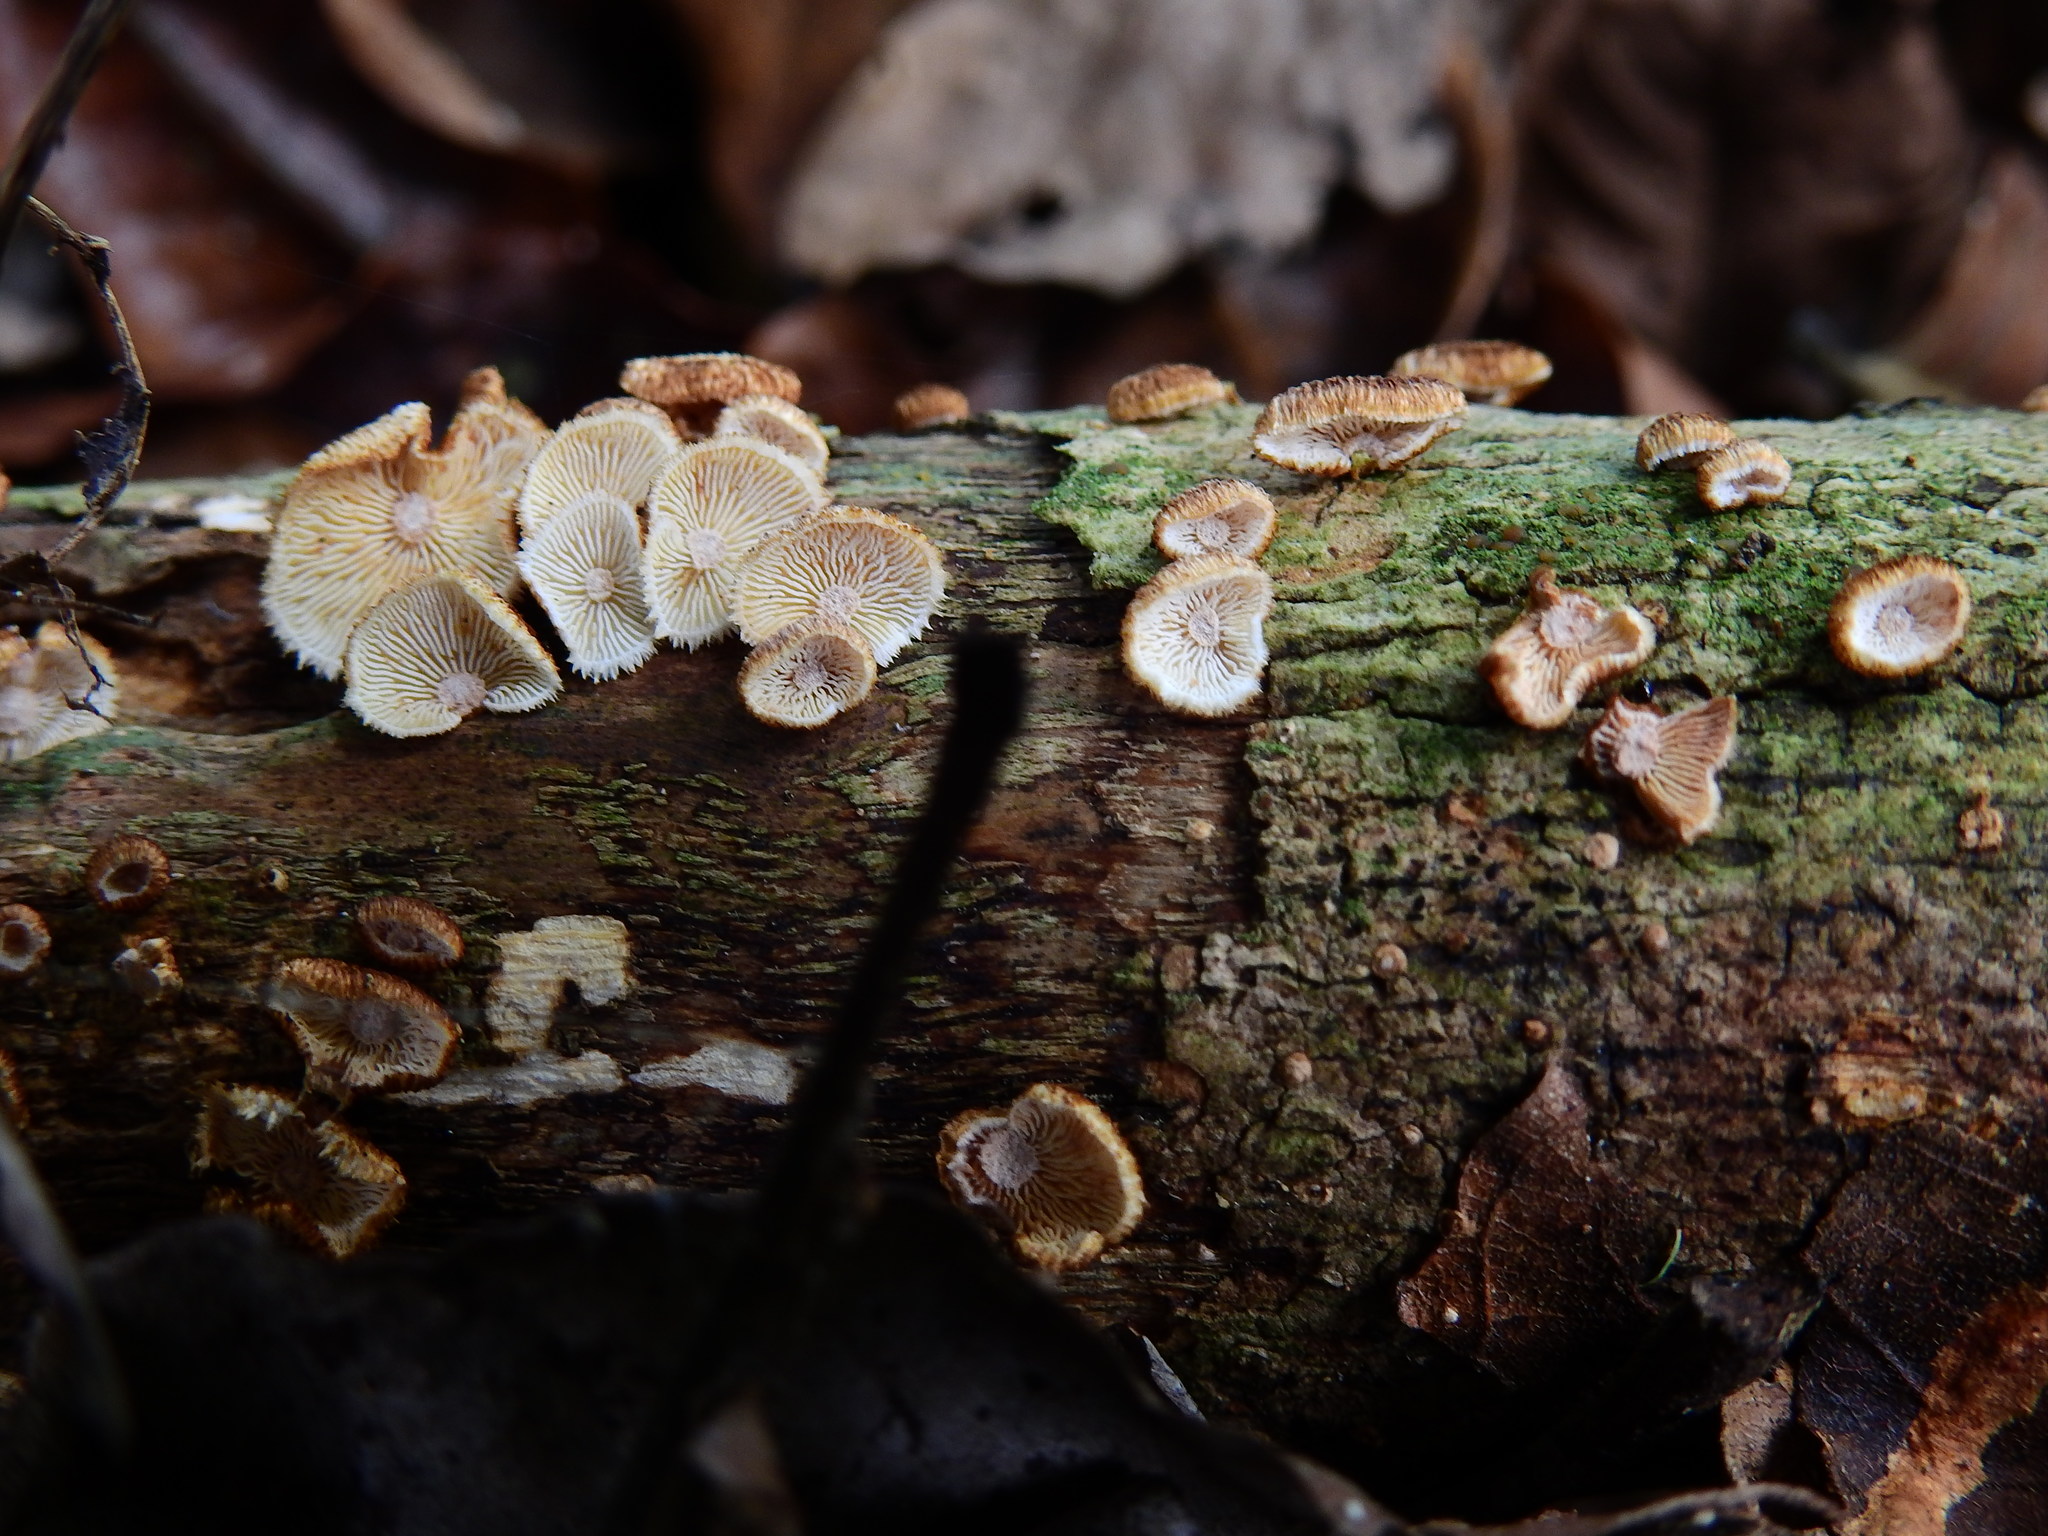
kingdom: Fungi
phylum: Basidiomycota
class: Agaricomycetes
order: Agaricales
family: Marasmiaceae
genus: Chaetocalathus
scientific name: Chaetocalathus cocciformis
